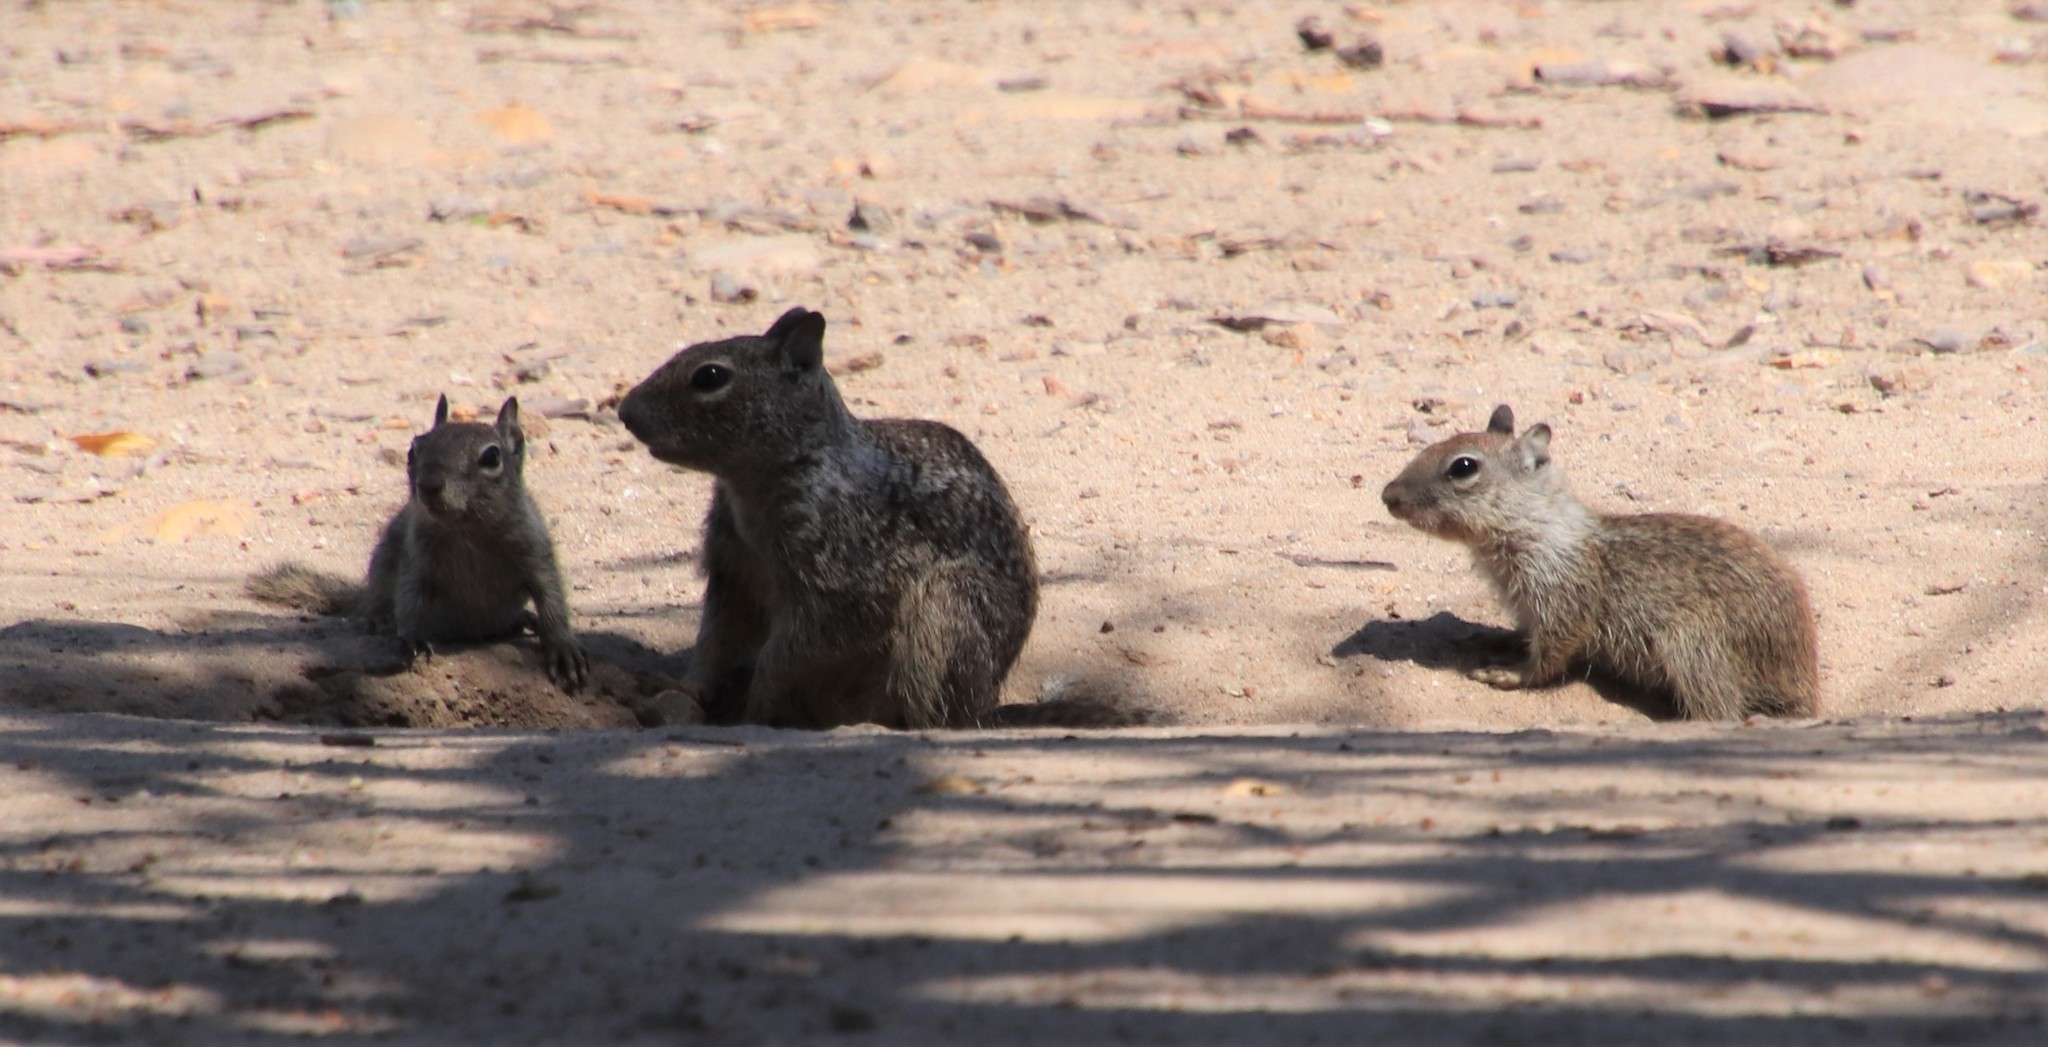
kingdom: Animalia
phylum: Chordata
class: Mammalia
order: Rodentia
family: Sciuridae
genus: Otospermophilus
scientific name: Otospermophilus beecheyi
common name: California ground squirrel
